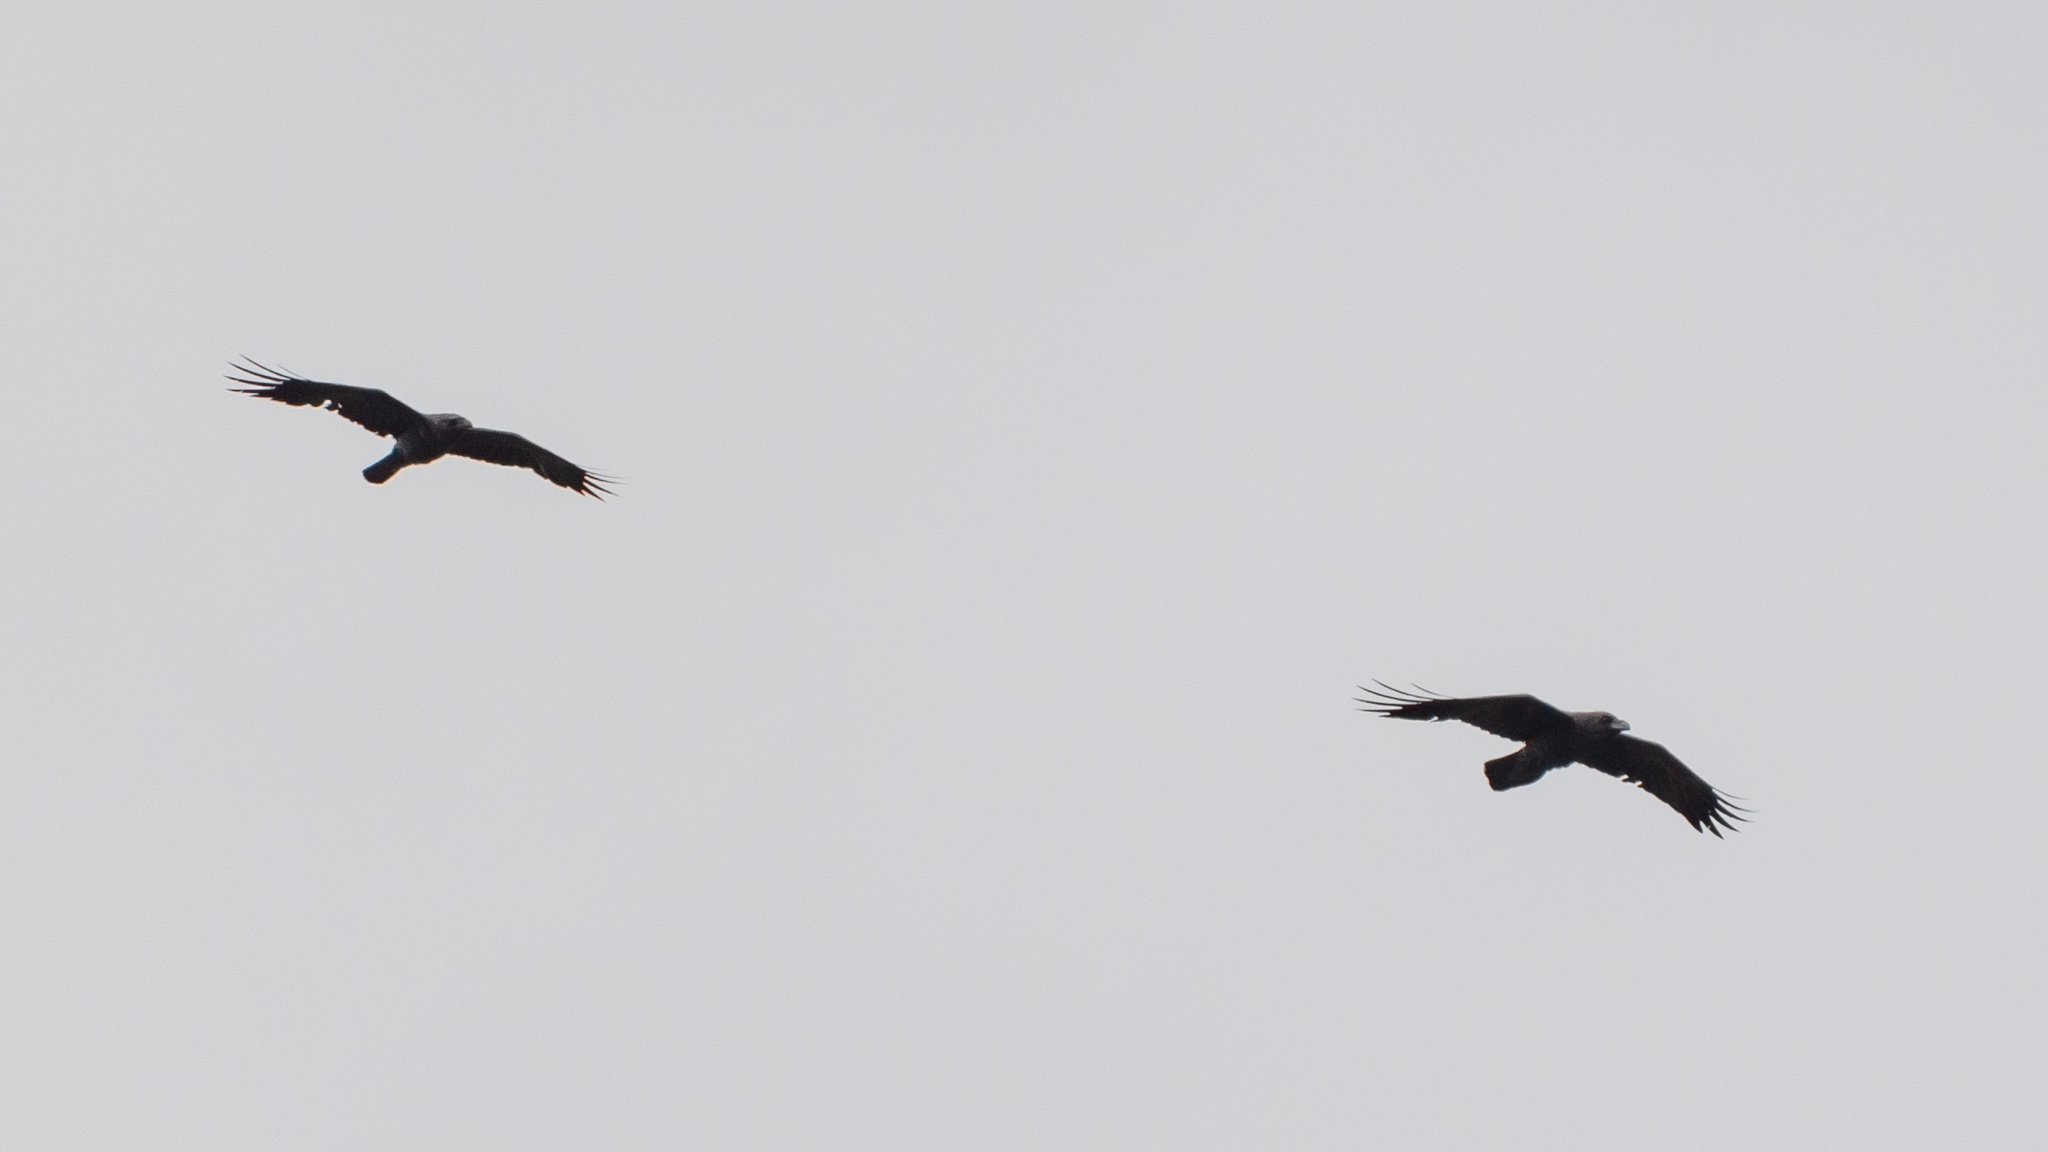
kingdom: Animalia
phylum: Chordata
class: Aves
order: Passeriformes
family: Corvidae
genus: Corvus
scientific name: Corvus corax
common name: Common raven
